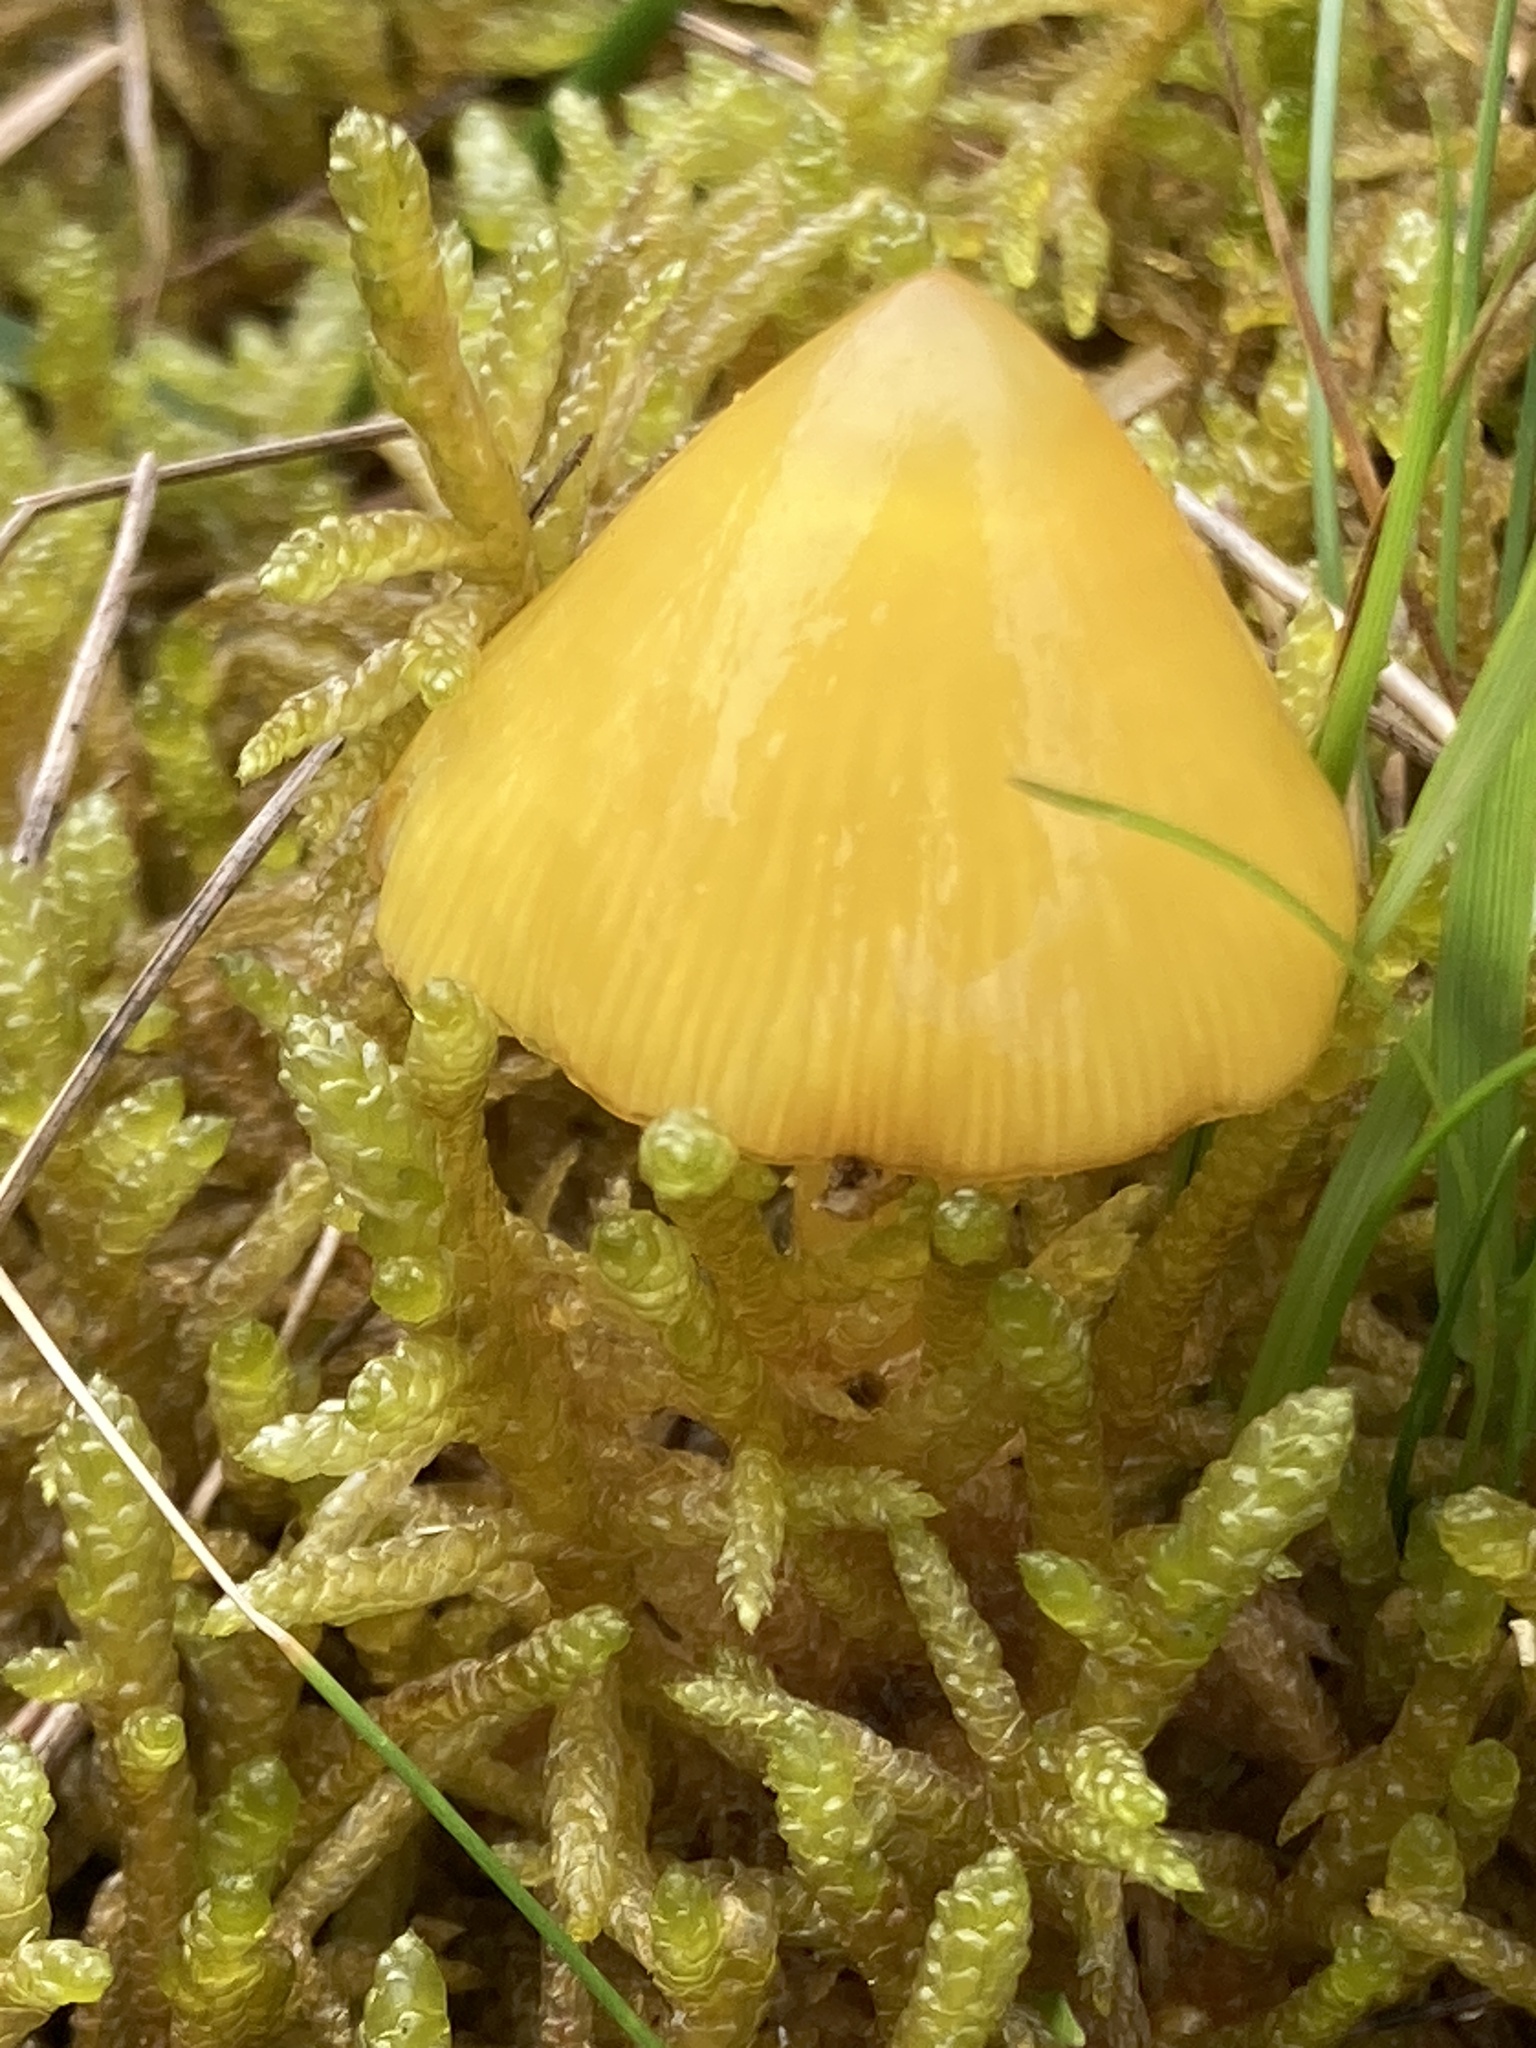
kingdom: Fungi
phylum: Basidiomycota
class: Agaricomycetes
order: Agaricales
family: Hygrophoraceae
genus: Hygrocybe
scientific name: Hygrocybe acutoconica
